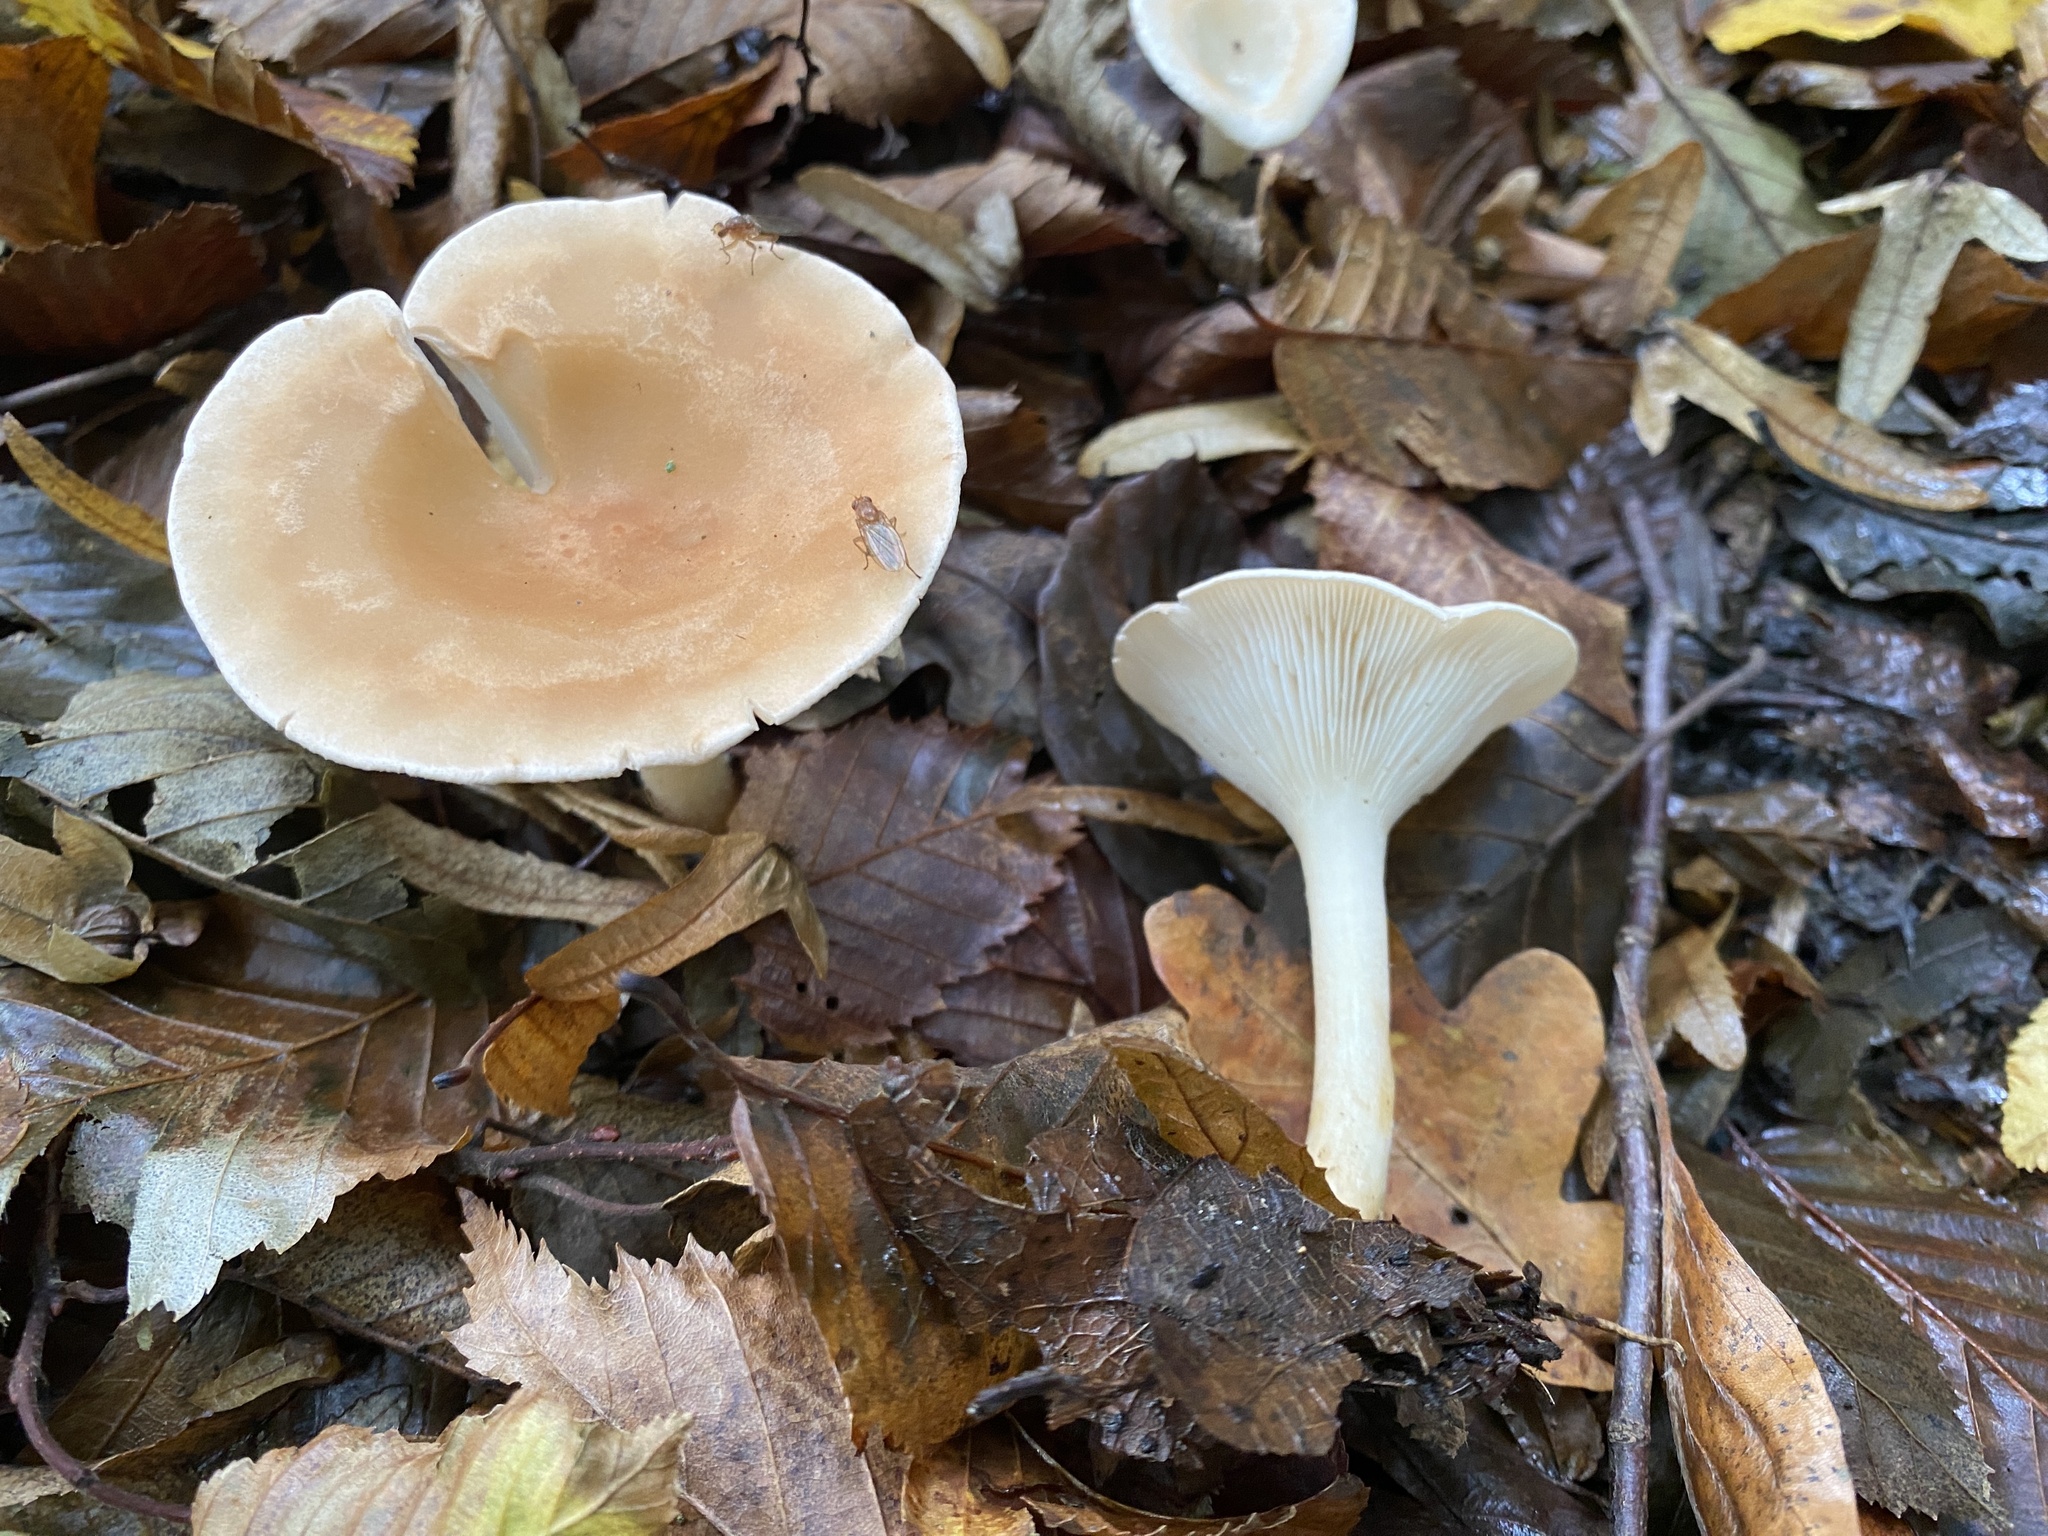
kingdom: Fungi
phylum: Basidiomycota
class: Agaricomycetes
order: Agaricales
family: Tricholomataceae
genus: Infundibulicybe
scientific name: Infundibulicybe gibba
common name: Common funnel
